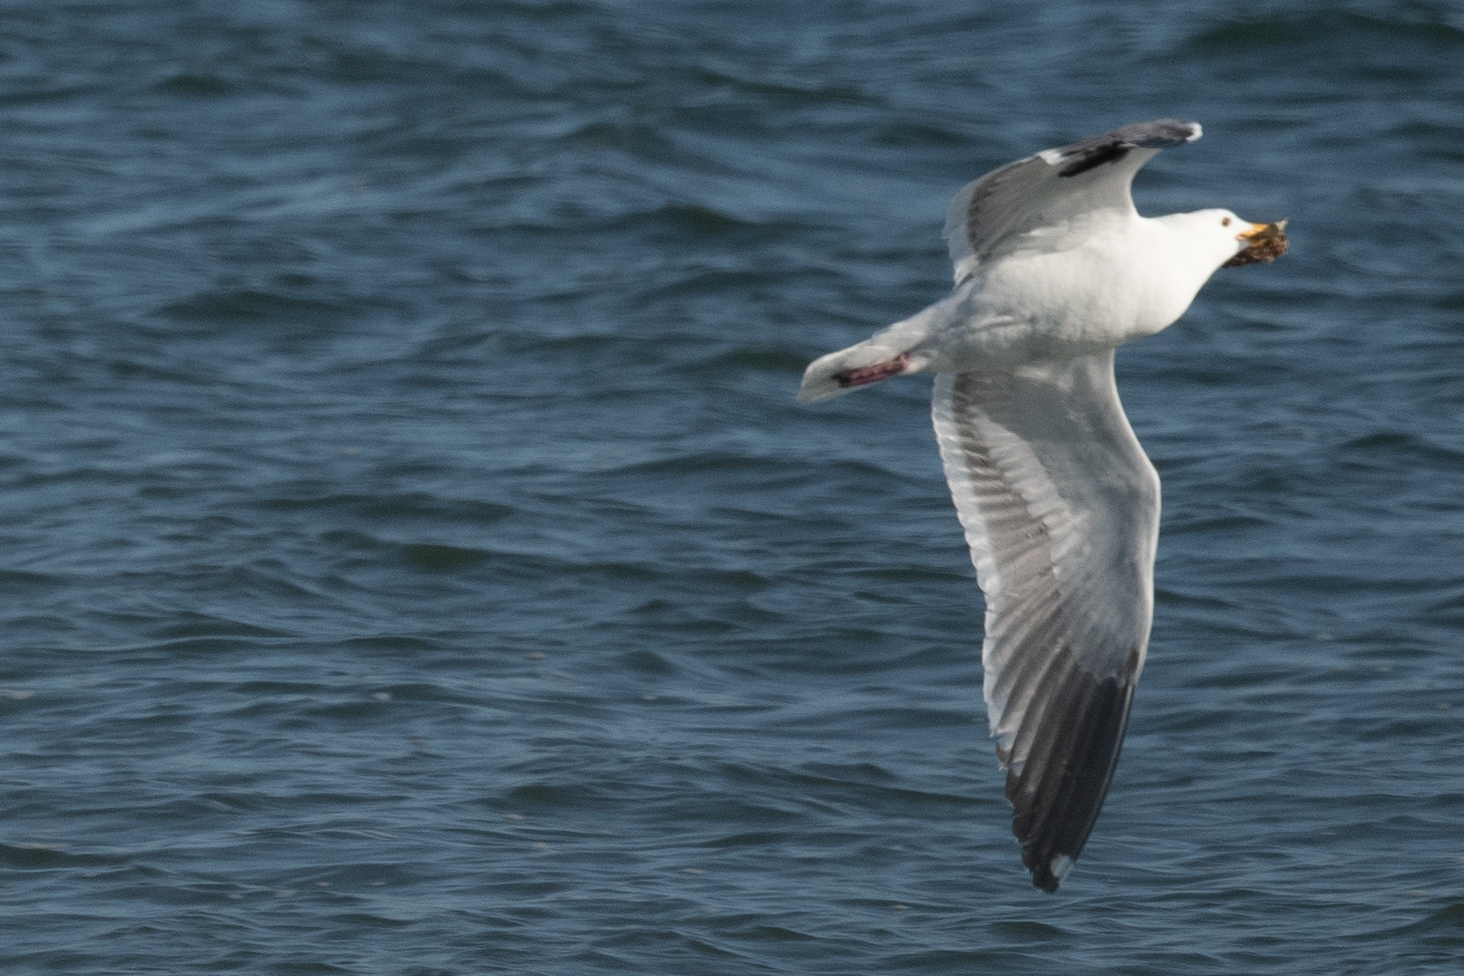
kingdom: Animalia
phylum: Chordata
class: Aves
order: Charadriiformes
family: Laridae
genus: Larus
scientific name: Larus occidentalis
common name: Western gull
